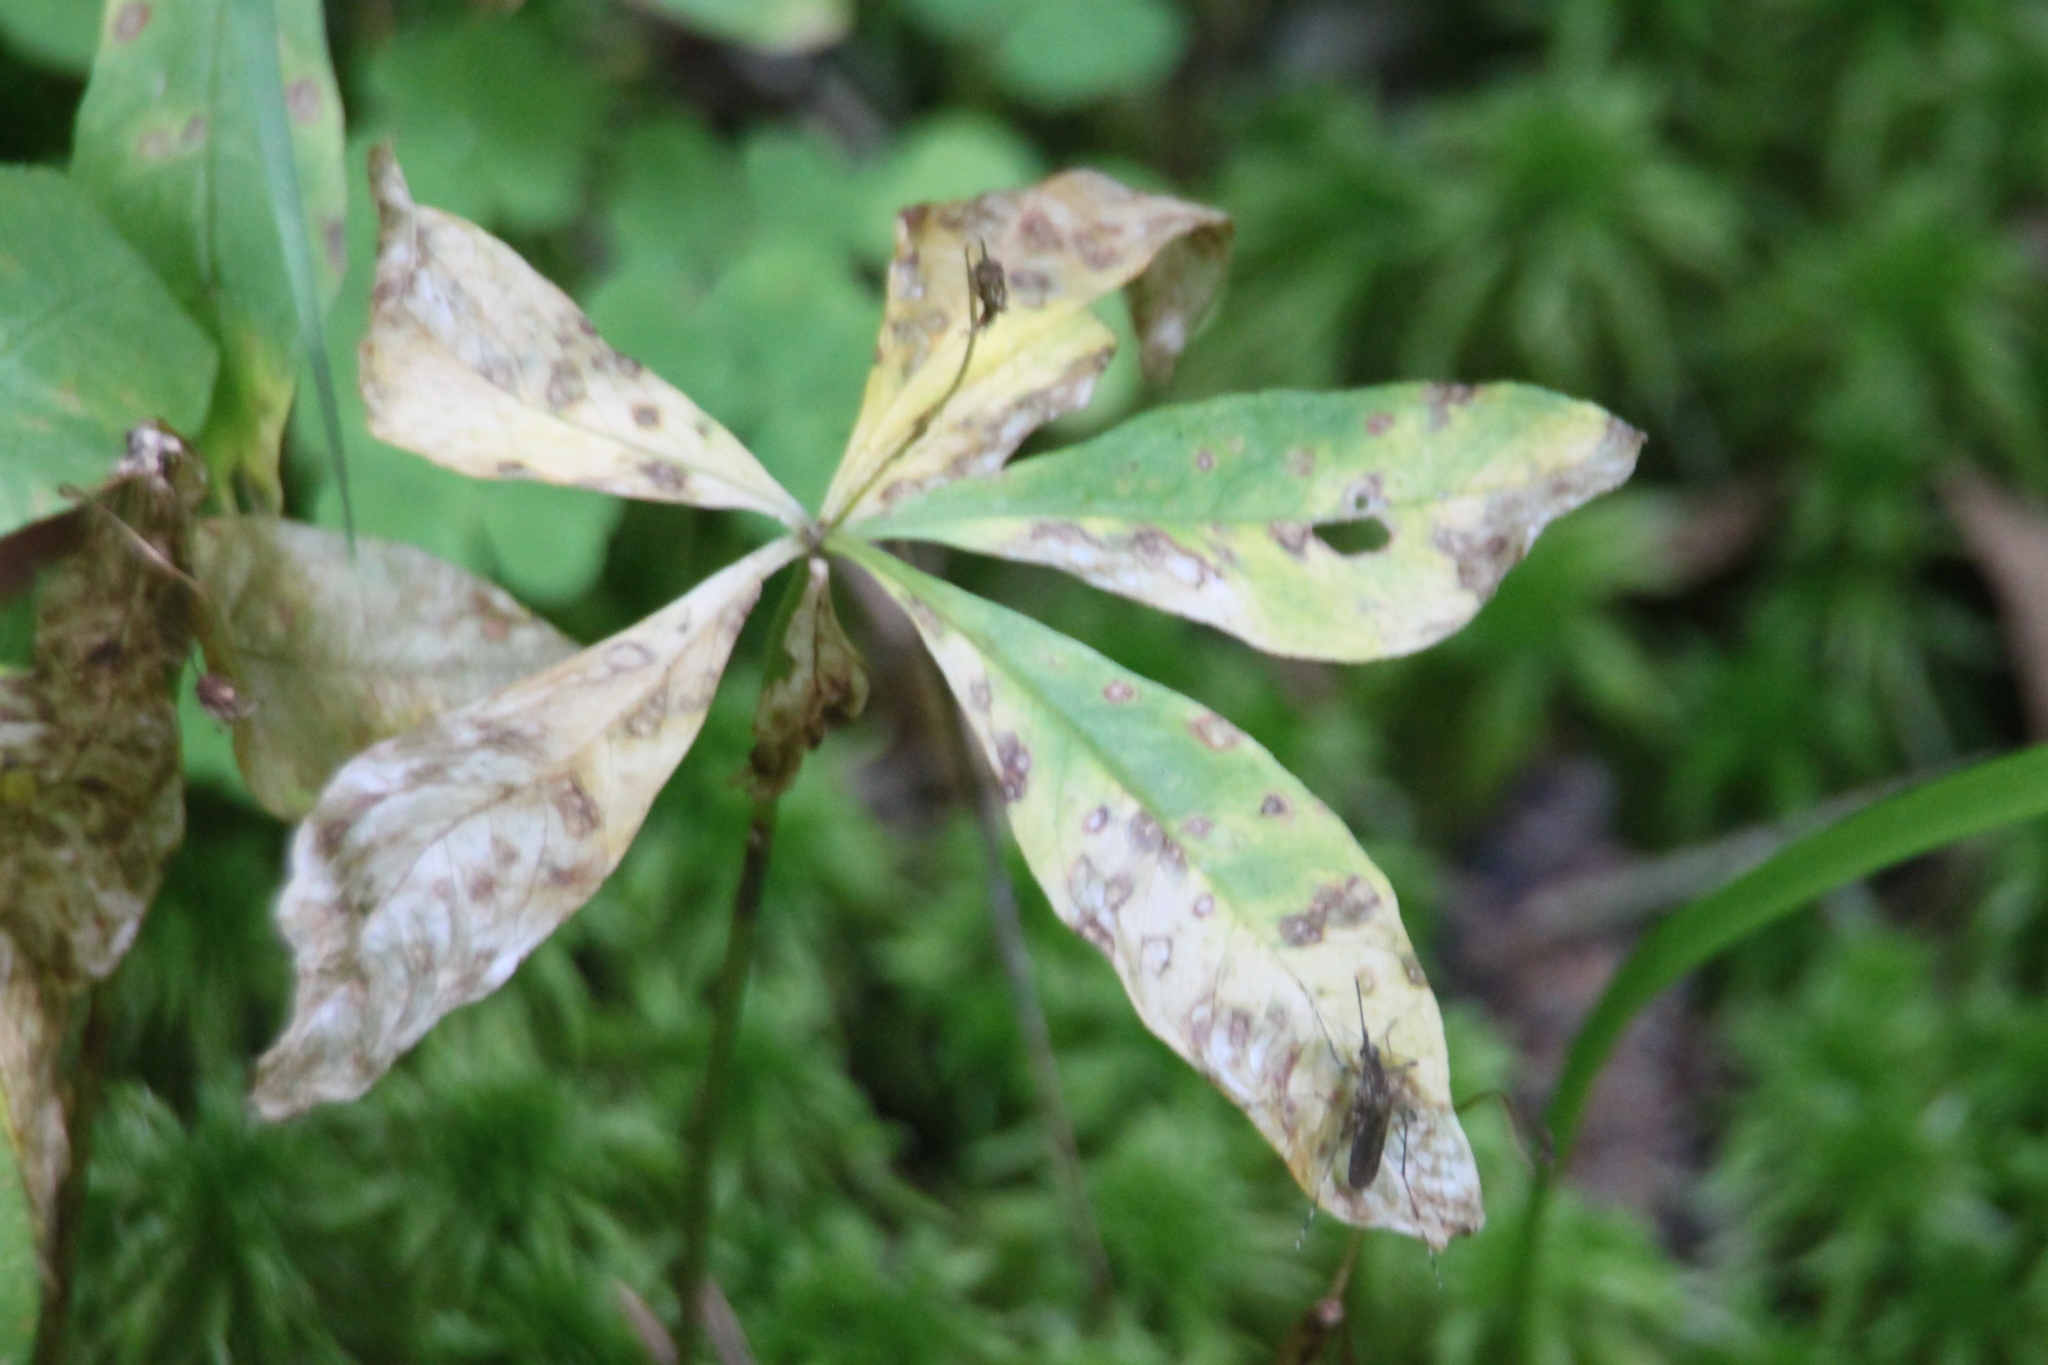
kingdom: Plantae
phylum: Tracheophyta
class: Magnoliopsida
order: Ericales
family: Primulaceae
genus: Lysimachia
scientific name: Lysimachia europaea
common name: Arctic starflower
